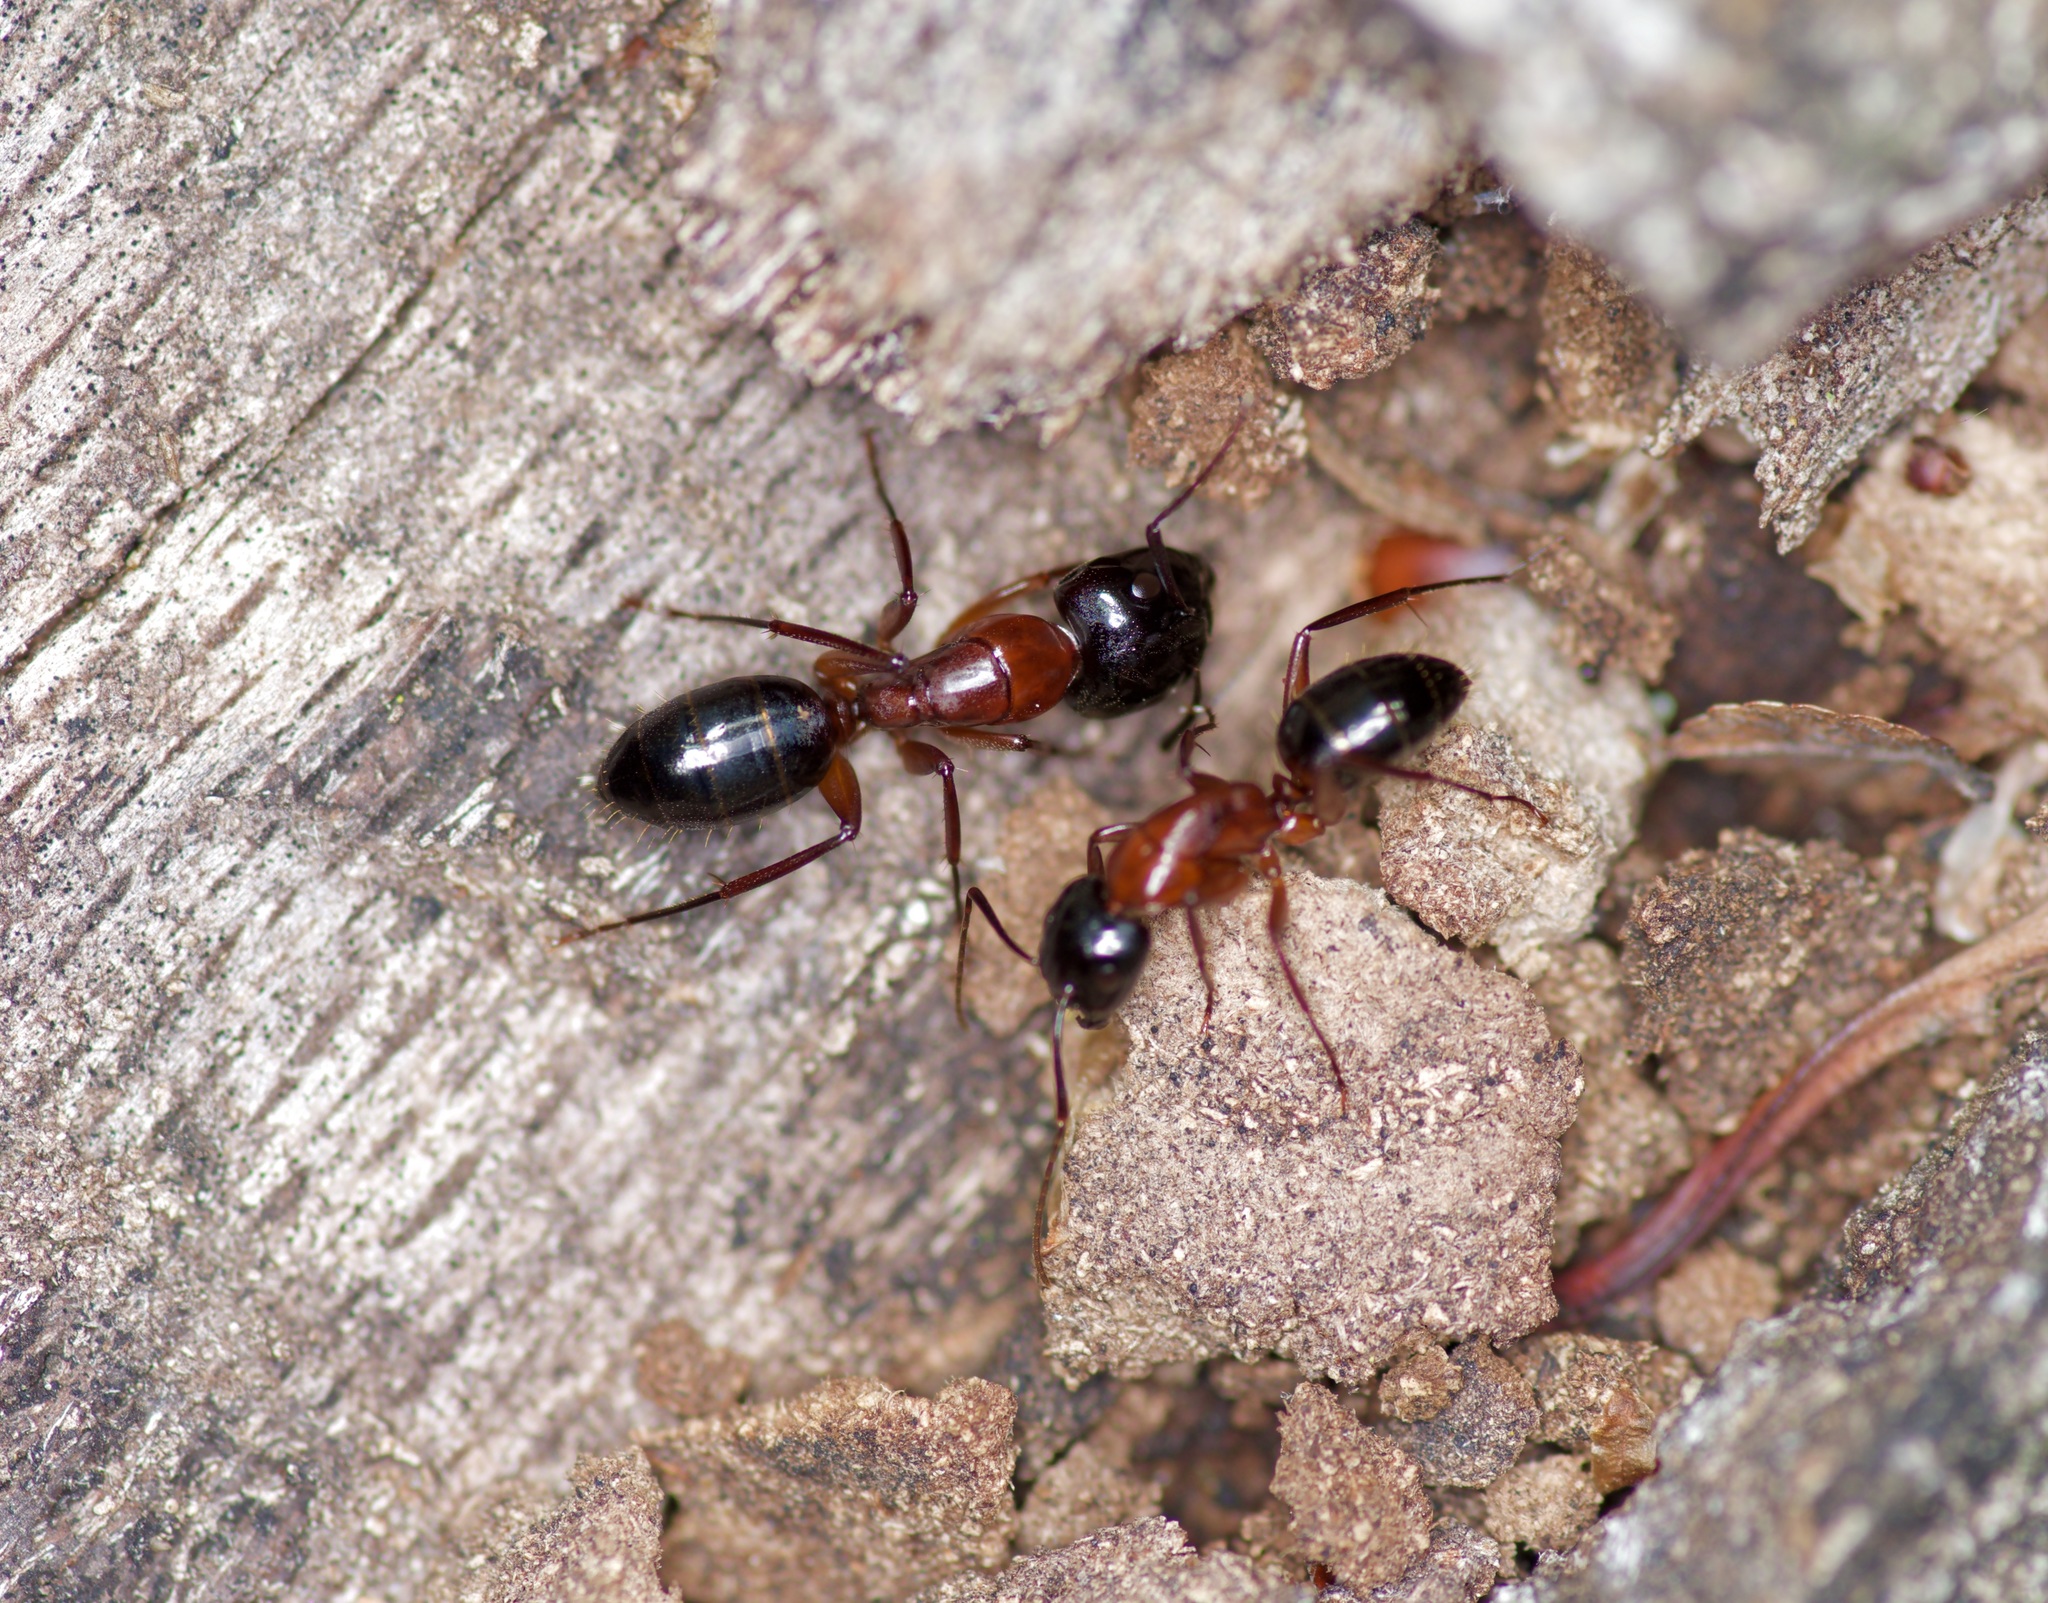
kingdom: Animalia
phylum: Arthropoda
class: Insecta
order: Hymenoptera
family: Formicidae
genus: Camponotus
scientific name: Camponotus texanus
